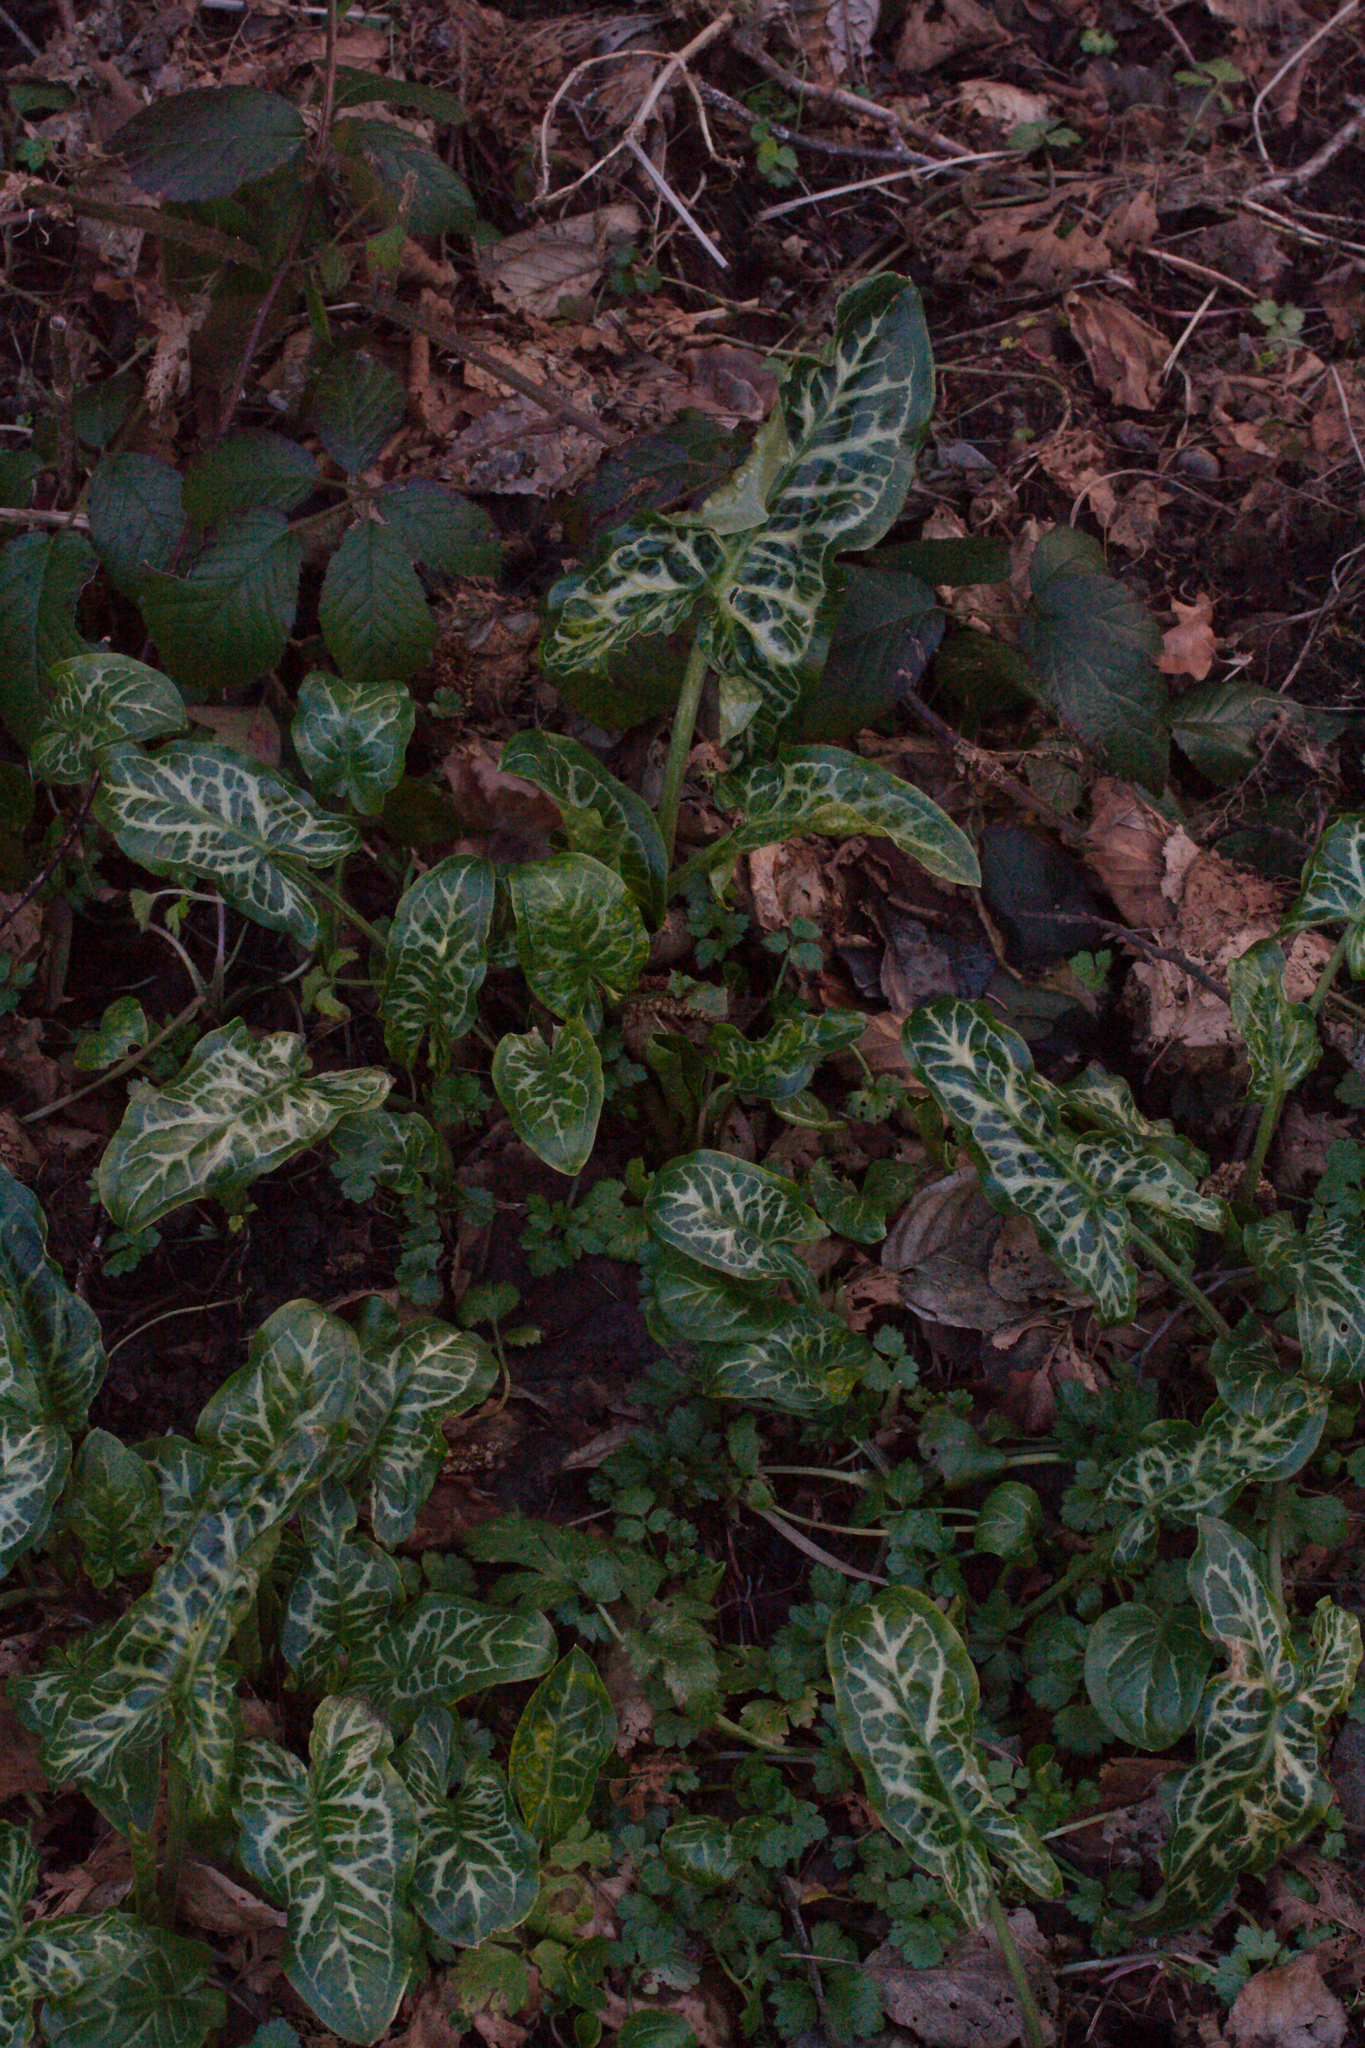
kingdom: Plantae
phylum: Tracheophyta
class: Liliopsida
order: Alismatales
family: Araceae
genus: Arum
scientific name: Arum italicum
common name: Italian lords-and-ladies
